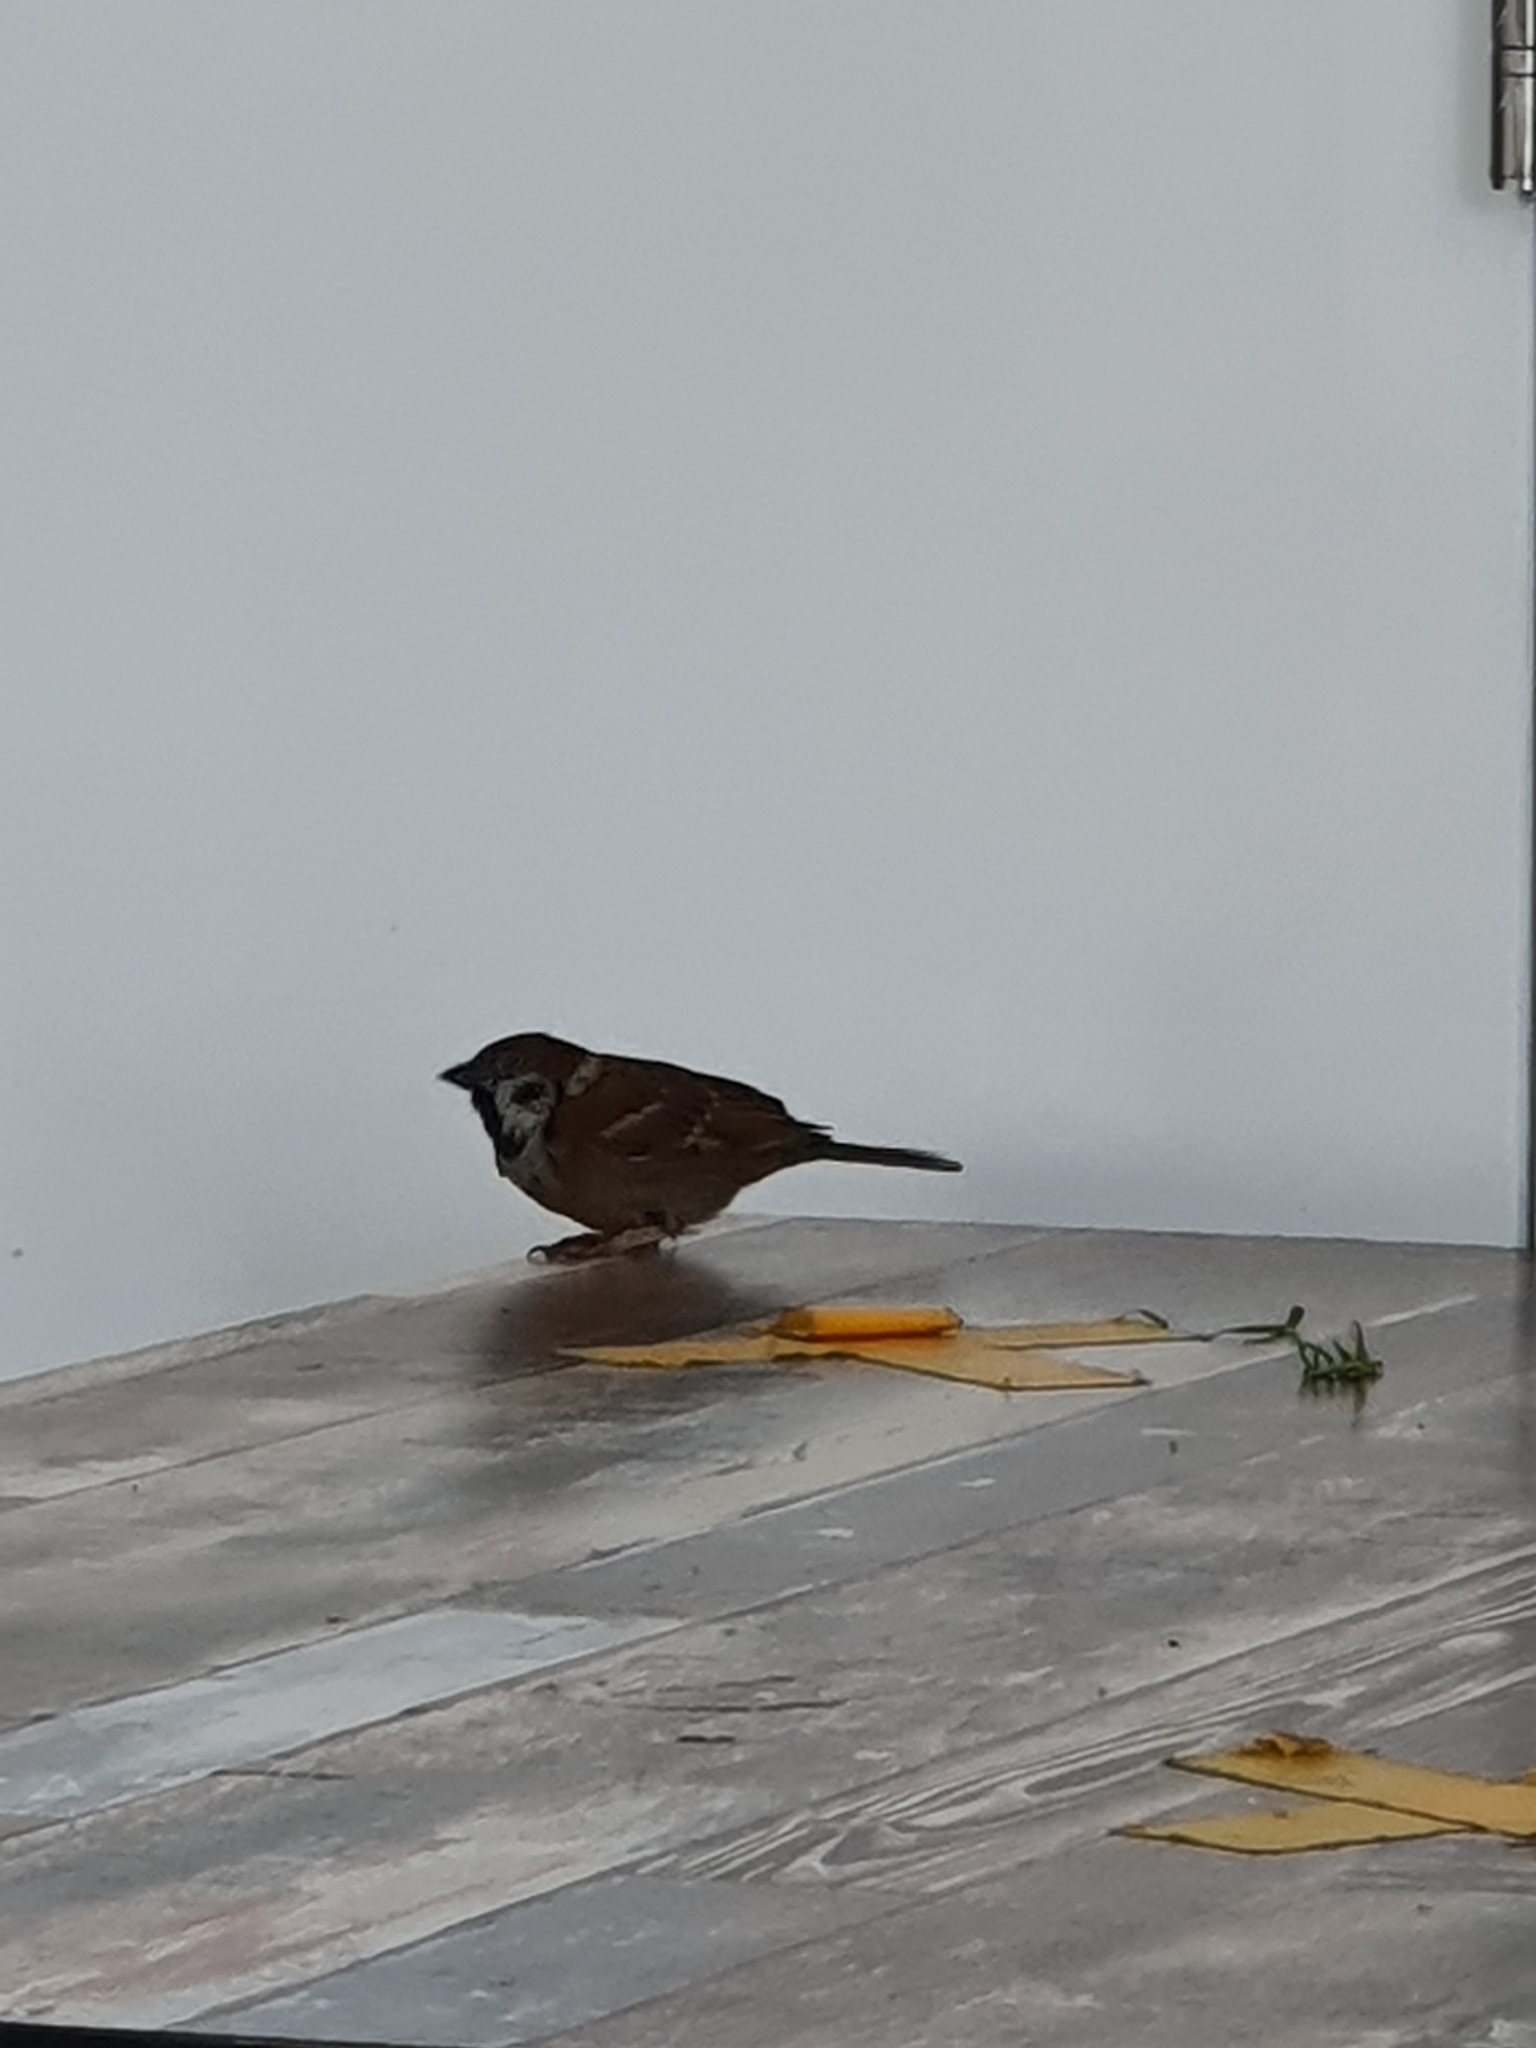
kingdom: Animalia
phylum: Chordata
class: Aves
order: Passeriformes
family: Passeridae
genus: Passer
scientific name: Passer montanus
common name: Eurasian tree sparrow
